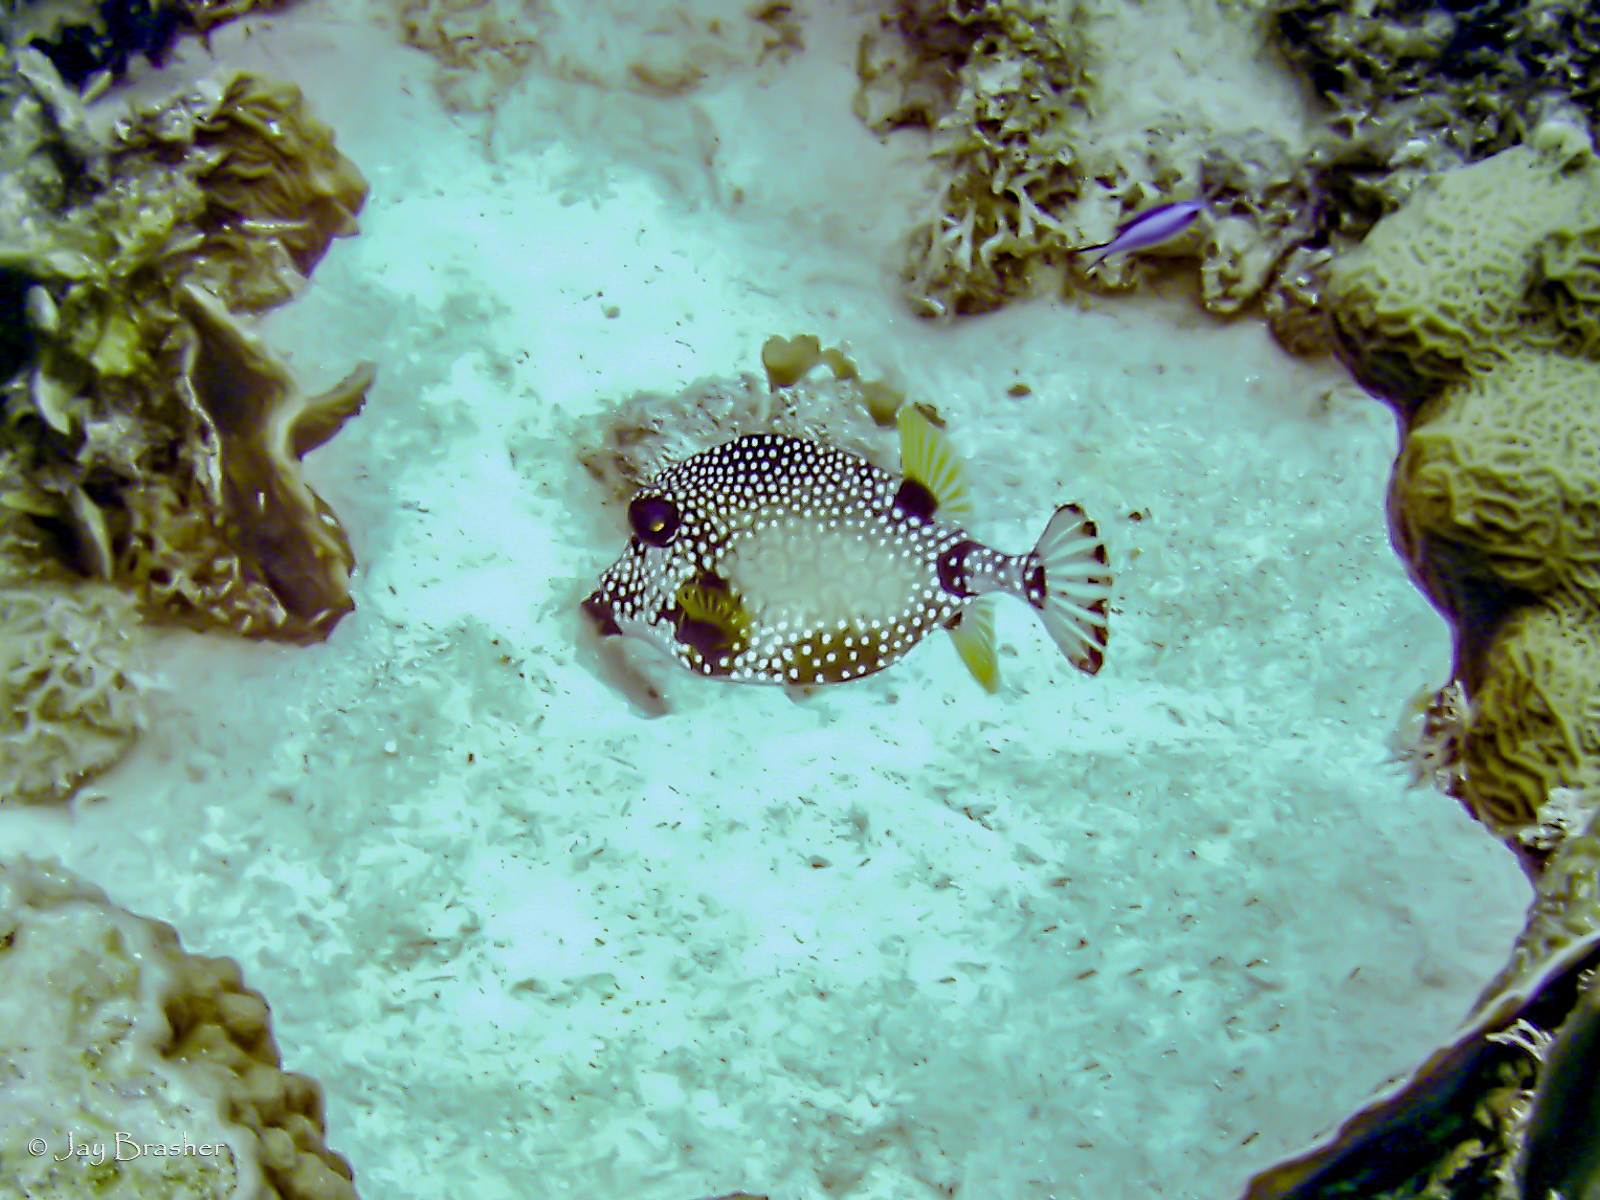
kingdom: Animalia
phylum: Chordata
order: Tetraodontiformes
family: Ostraciidae
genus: Lactophrys
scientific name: Lactophrys triqueter
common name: Smooth trunkfish
